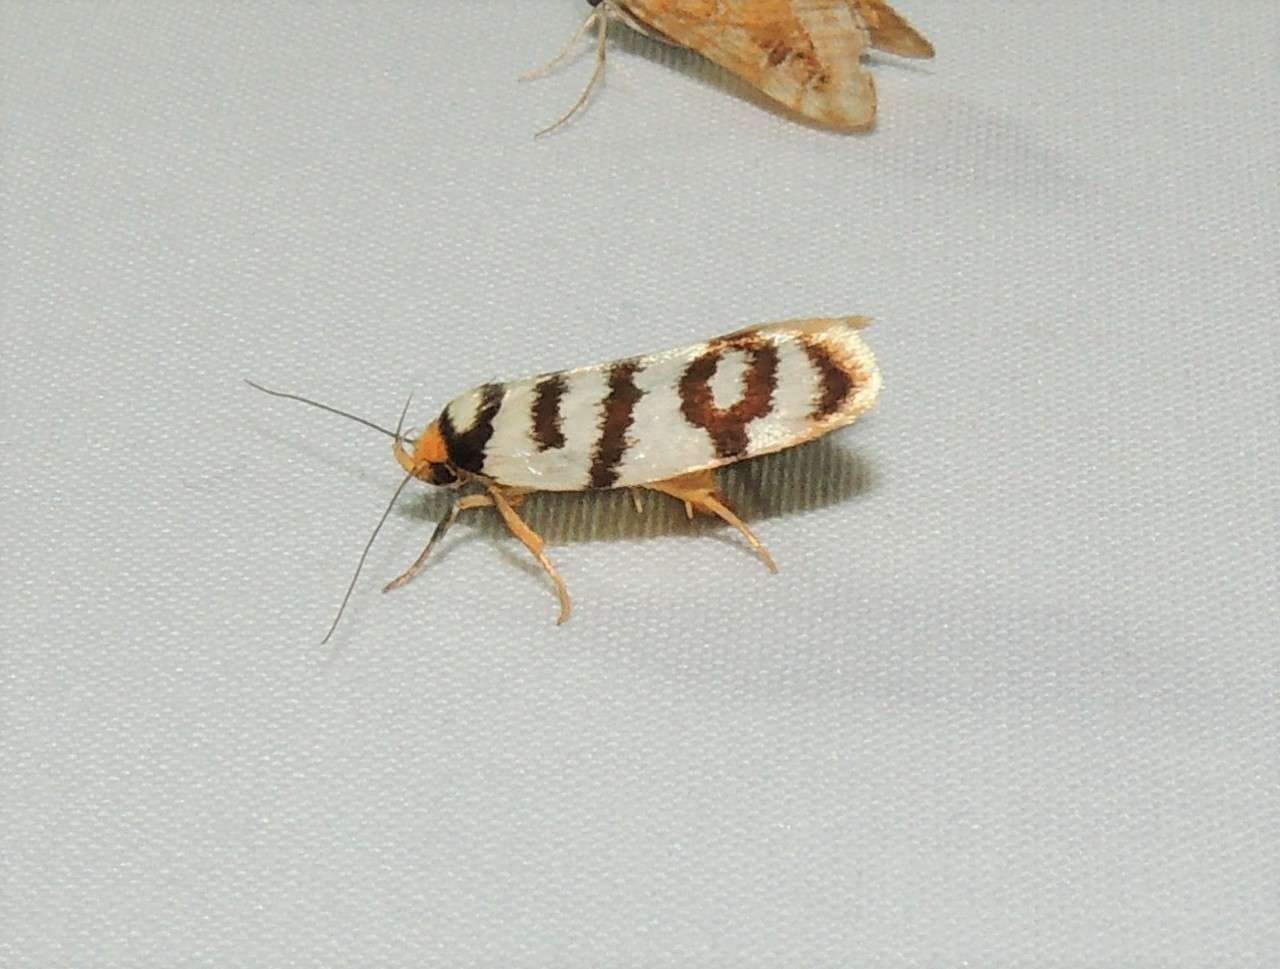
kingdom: Animalia
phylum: Arthropoda
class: Insecta
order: Lepidoptera
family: Oecophoridae
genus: Eulechria
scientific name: Eulechria cyclophragma
